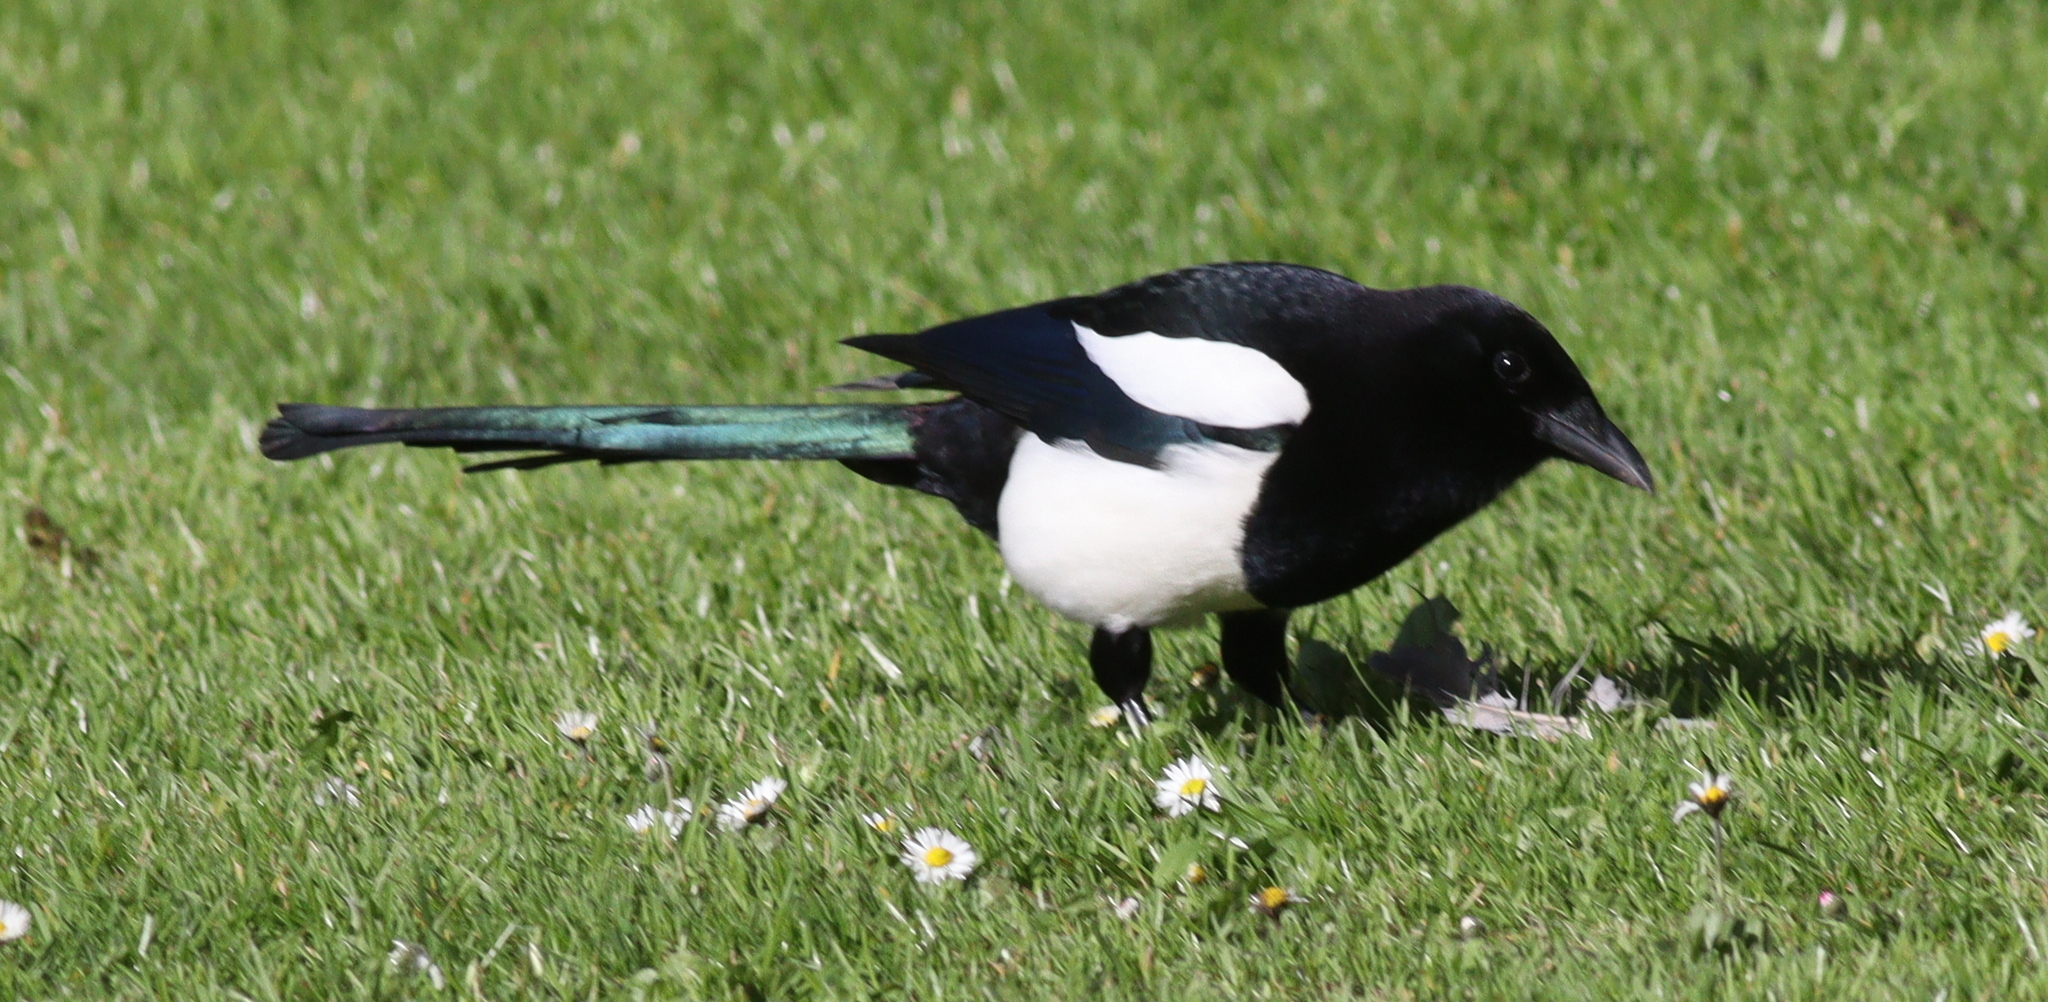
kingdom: Animalia
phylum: Chordata
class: Aves
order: Passeriformes
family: Corvidae
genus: Pica
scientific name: Pica pica
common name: Eurasian magpie
